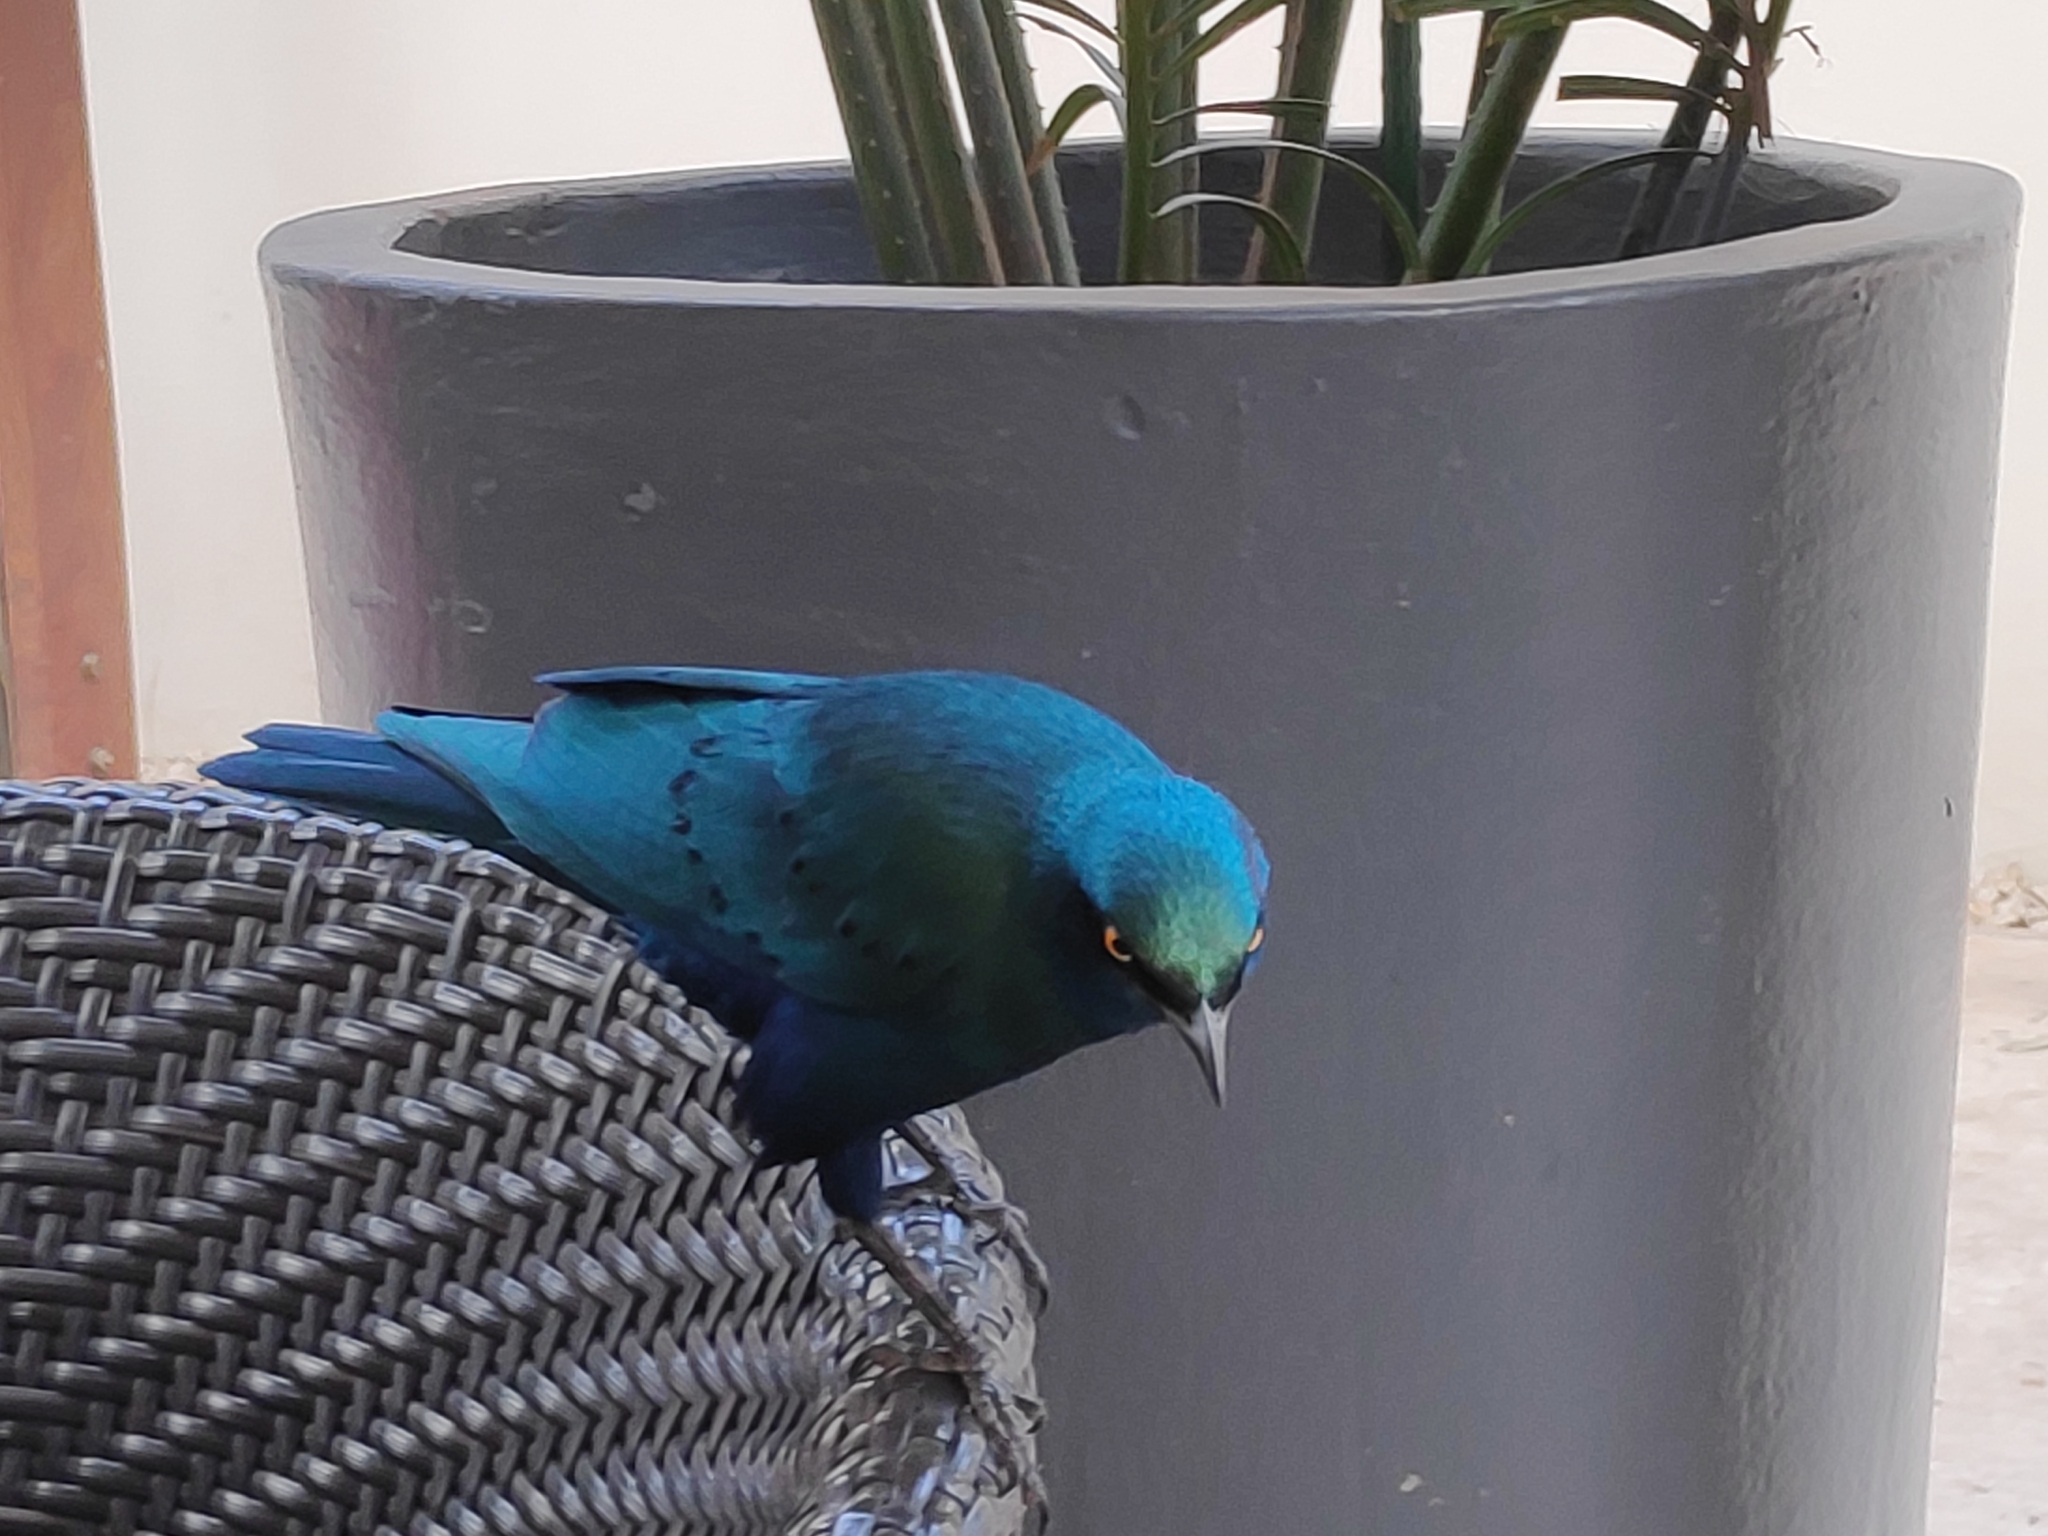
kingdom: Animalia
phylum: Chordata
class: Aves
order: Passeriformes
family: Sturnidae
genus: Lamprotornis
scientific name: Lamprotornis chalybaeus
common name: Greater blue-eared starling
